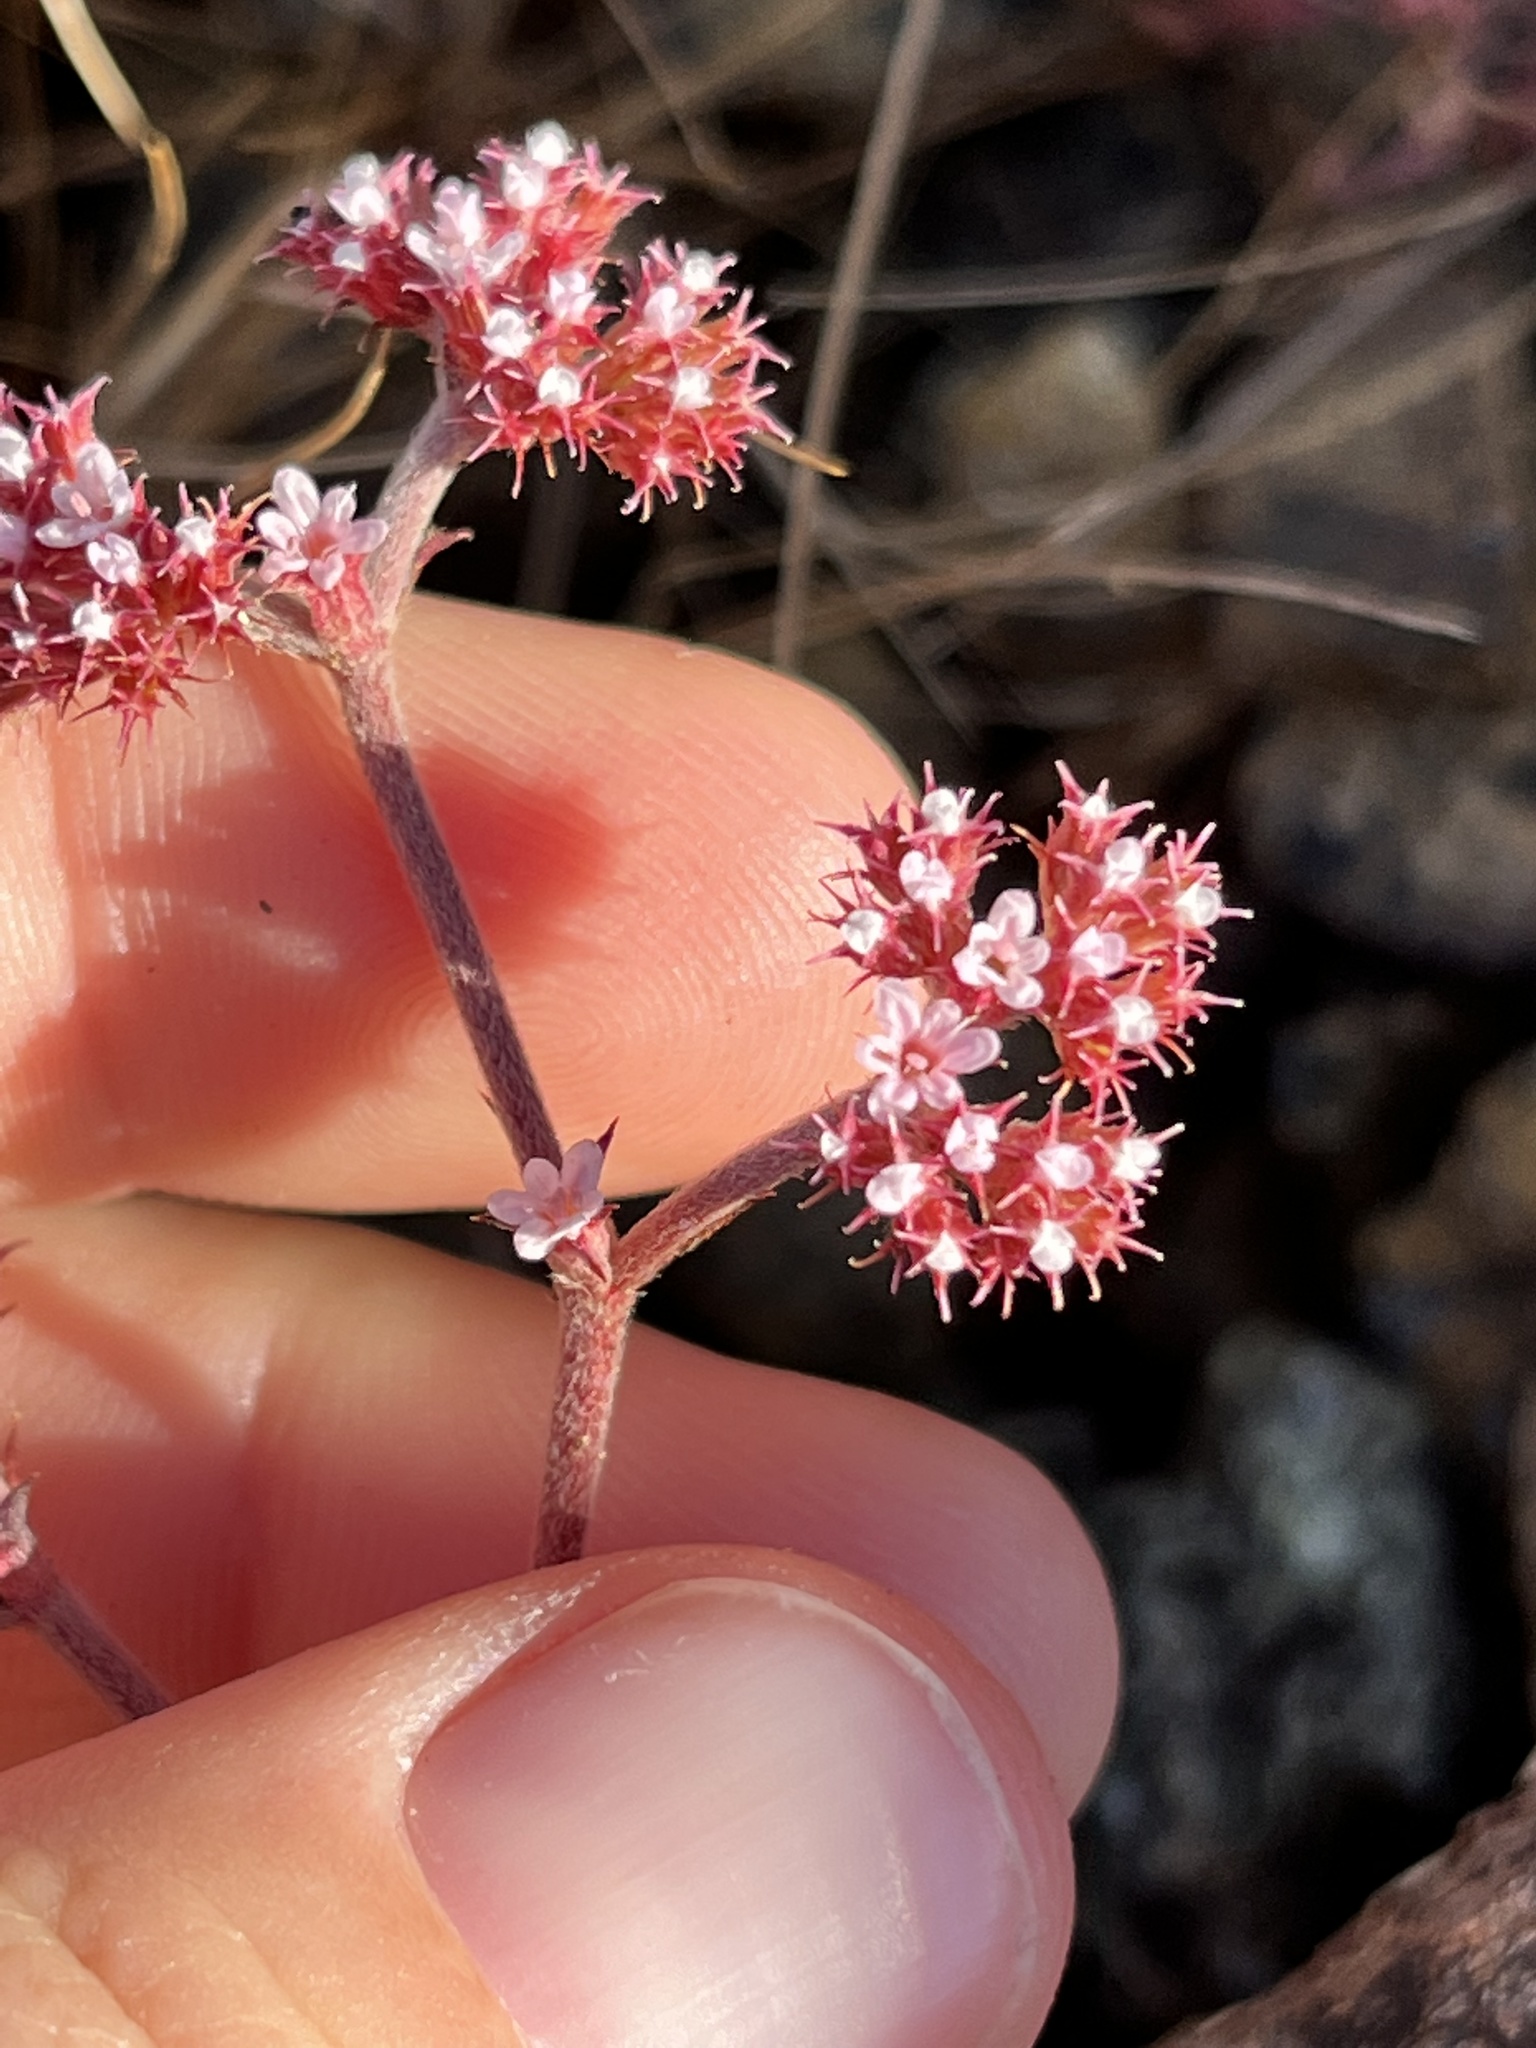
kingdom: Plantae
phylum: Tracheophyta
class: Magnoliopsida
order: Caryophyllales
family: Polygonaceae
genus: Chorizanthe
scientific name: Chorizanthe breweri
